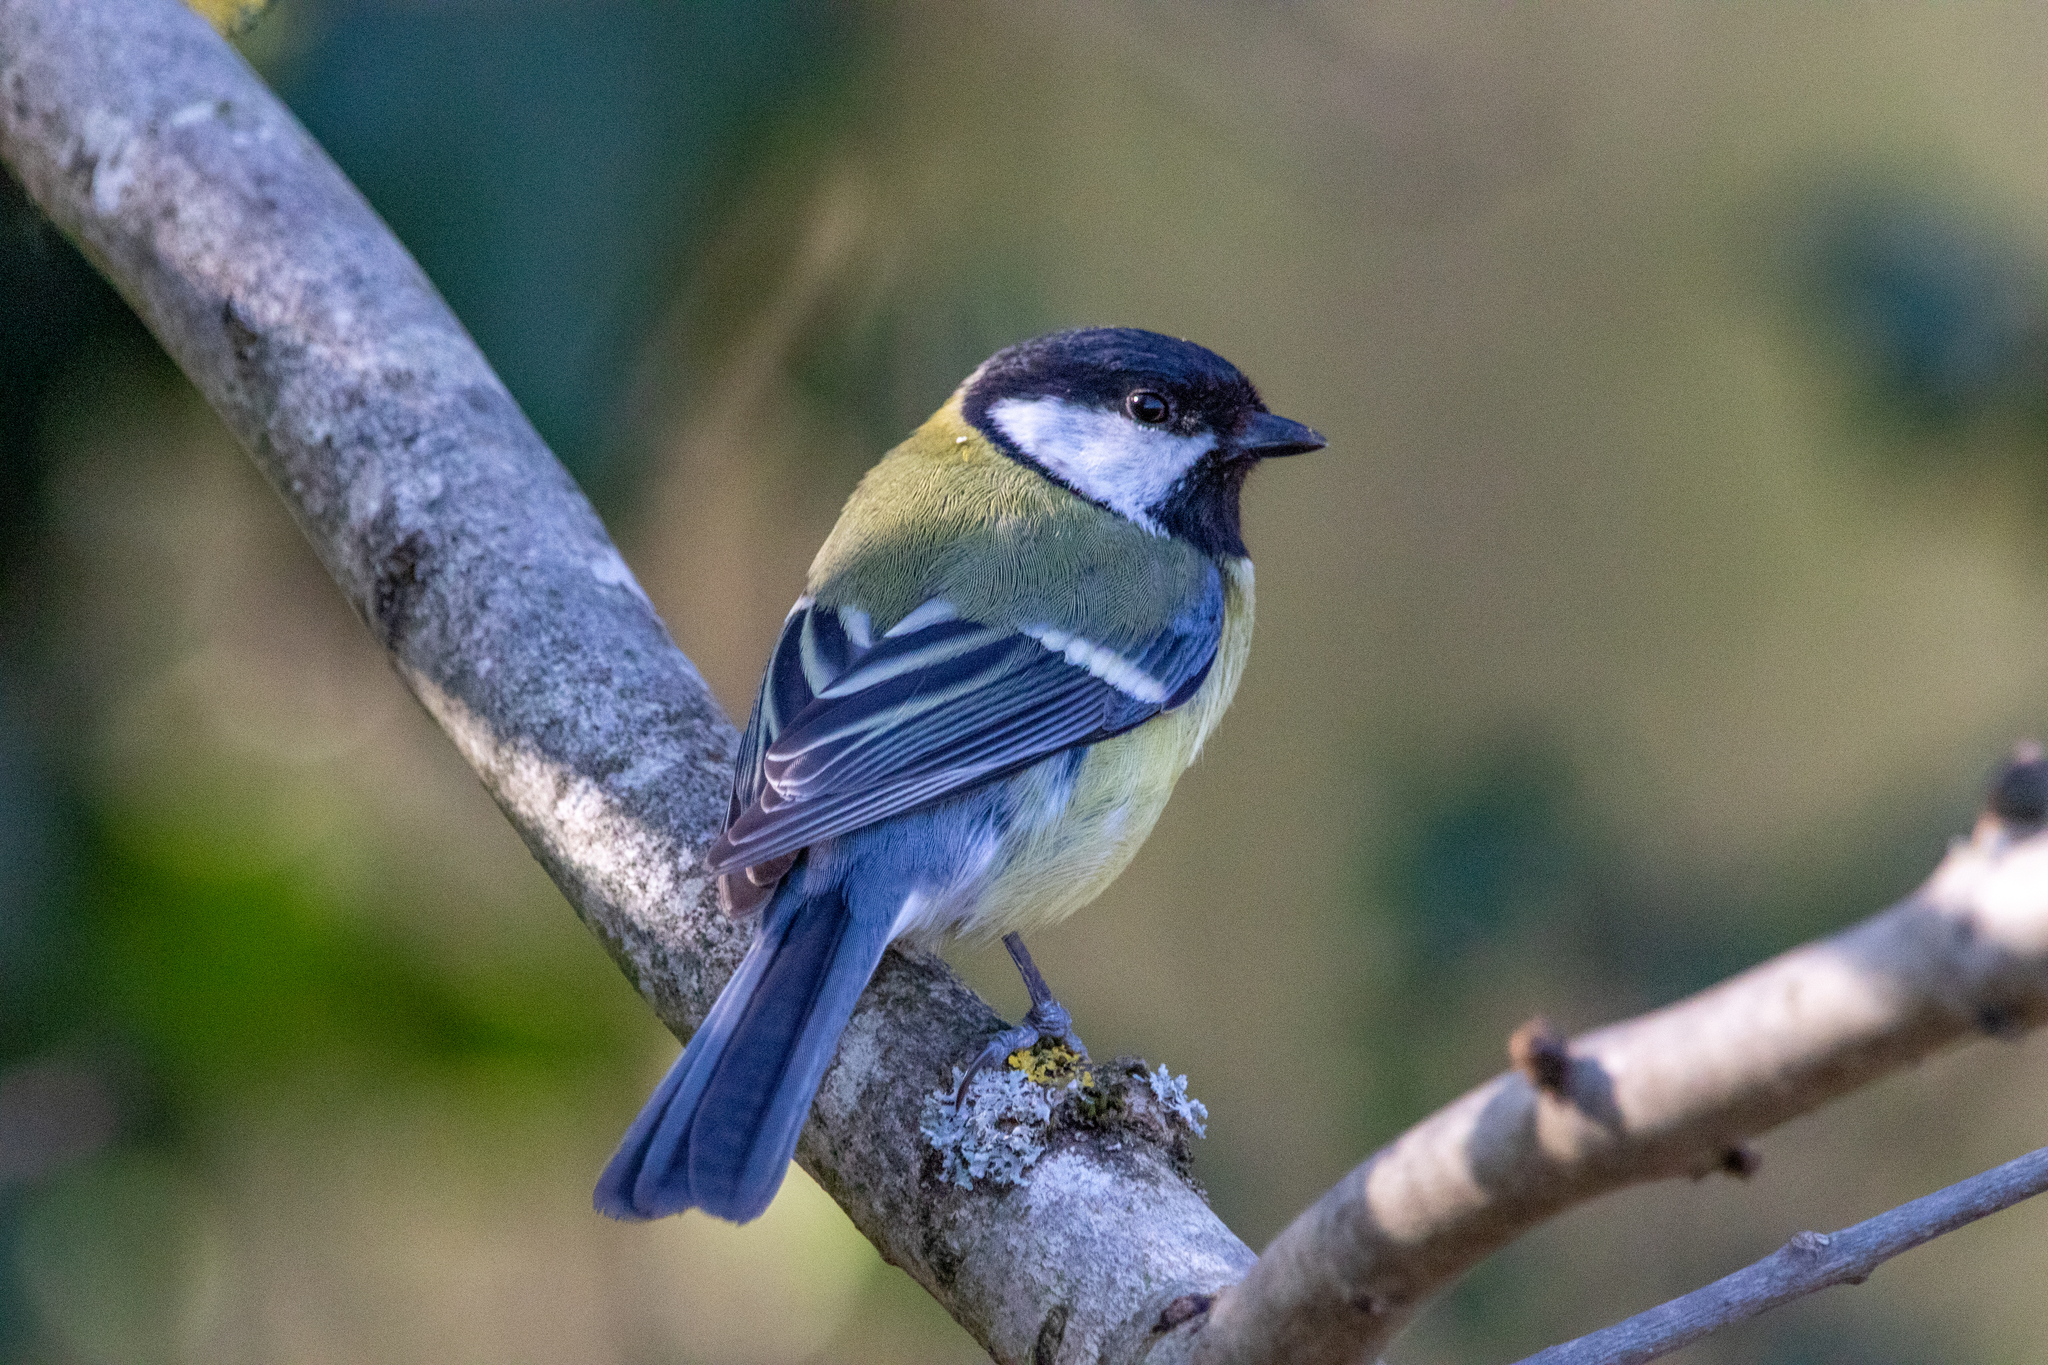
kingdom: Animalia
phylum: Chordata
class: Aves
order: Passeriformes
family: Paridae
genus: Parus
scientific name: Parus major
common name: Great tit
